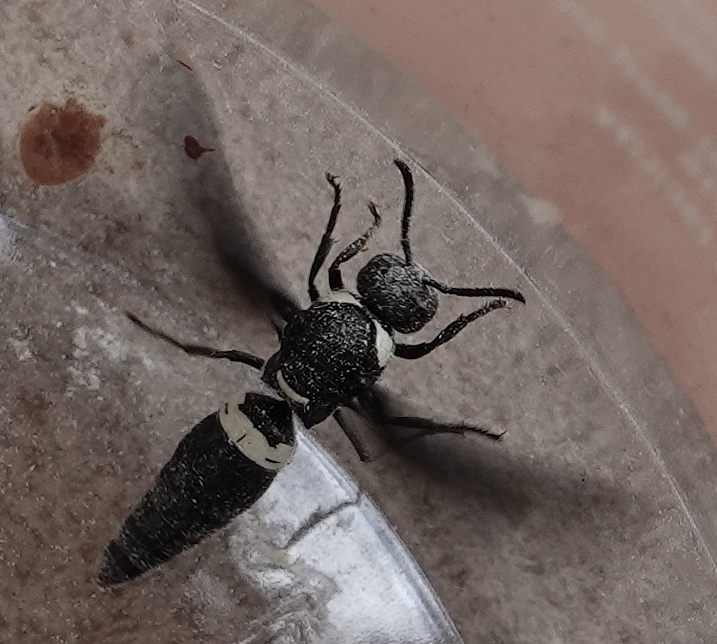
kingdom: Animalia
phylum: Arthropoda
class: Insecta
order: Hymenoptera
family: Eumenidae
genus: Monobia
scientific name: Monobia quadridens
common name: Four-toothed mason wasp
